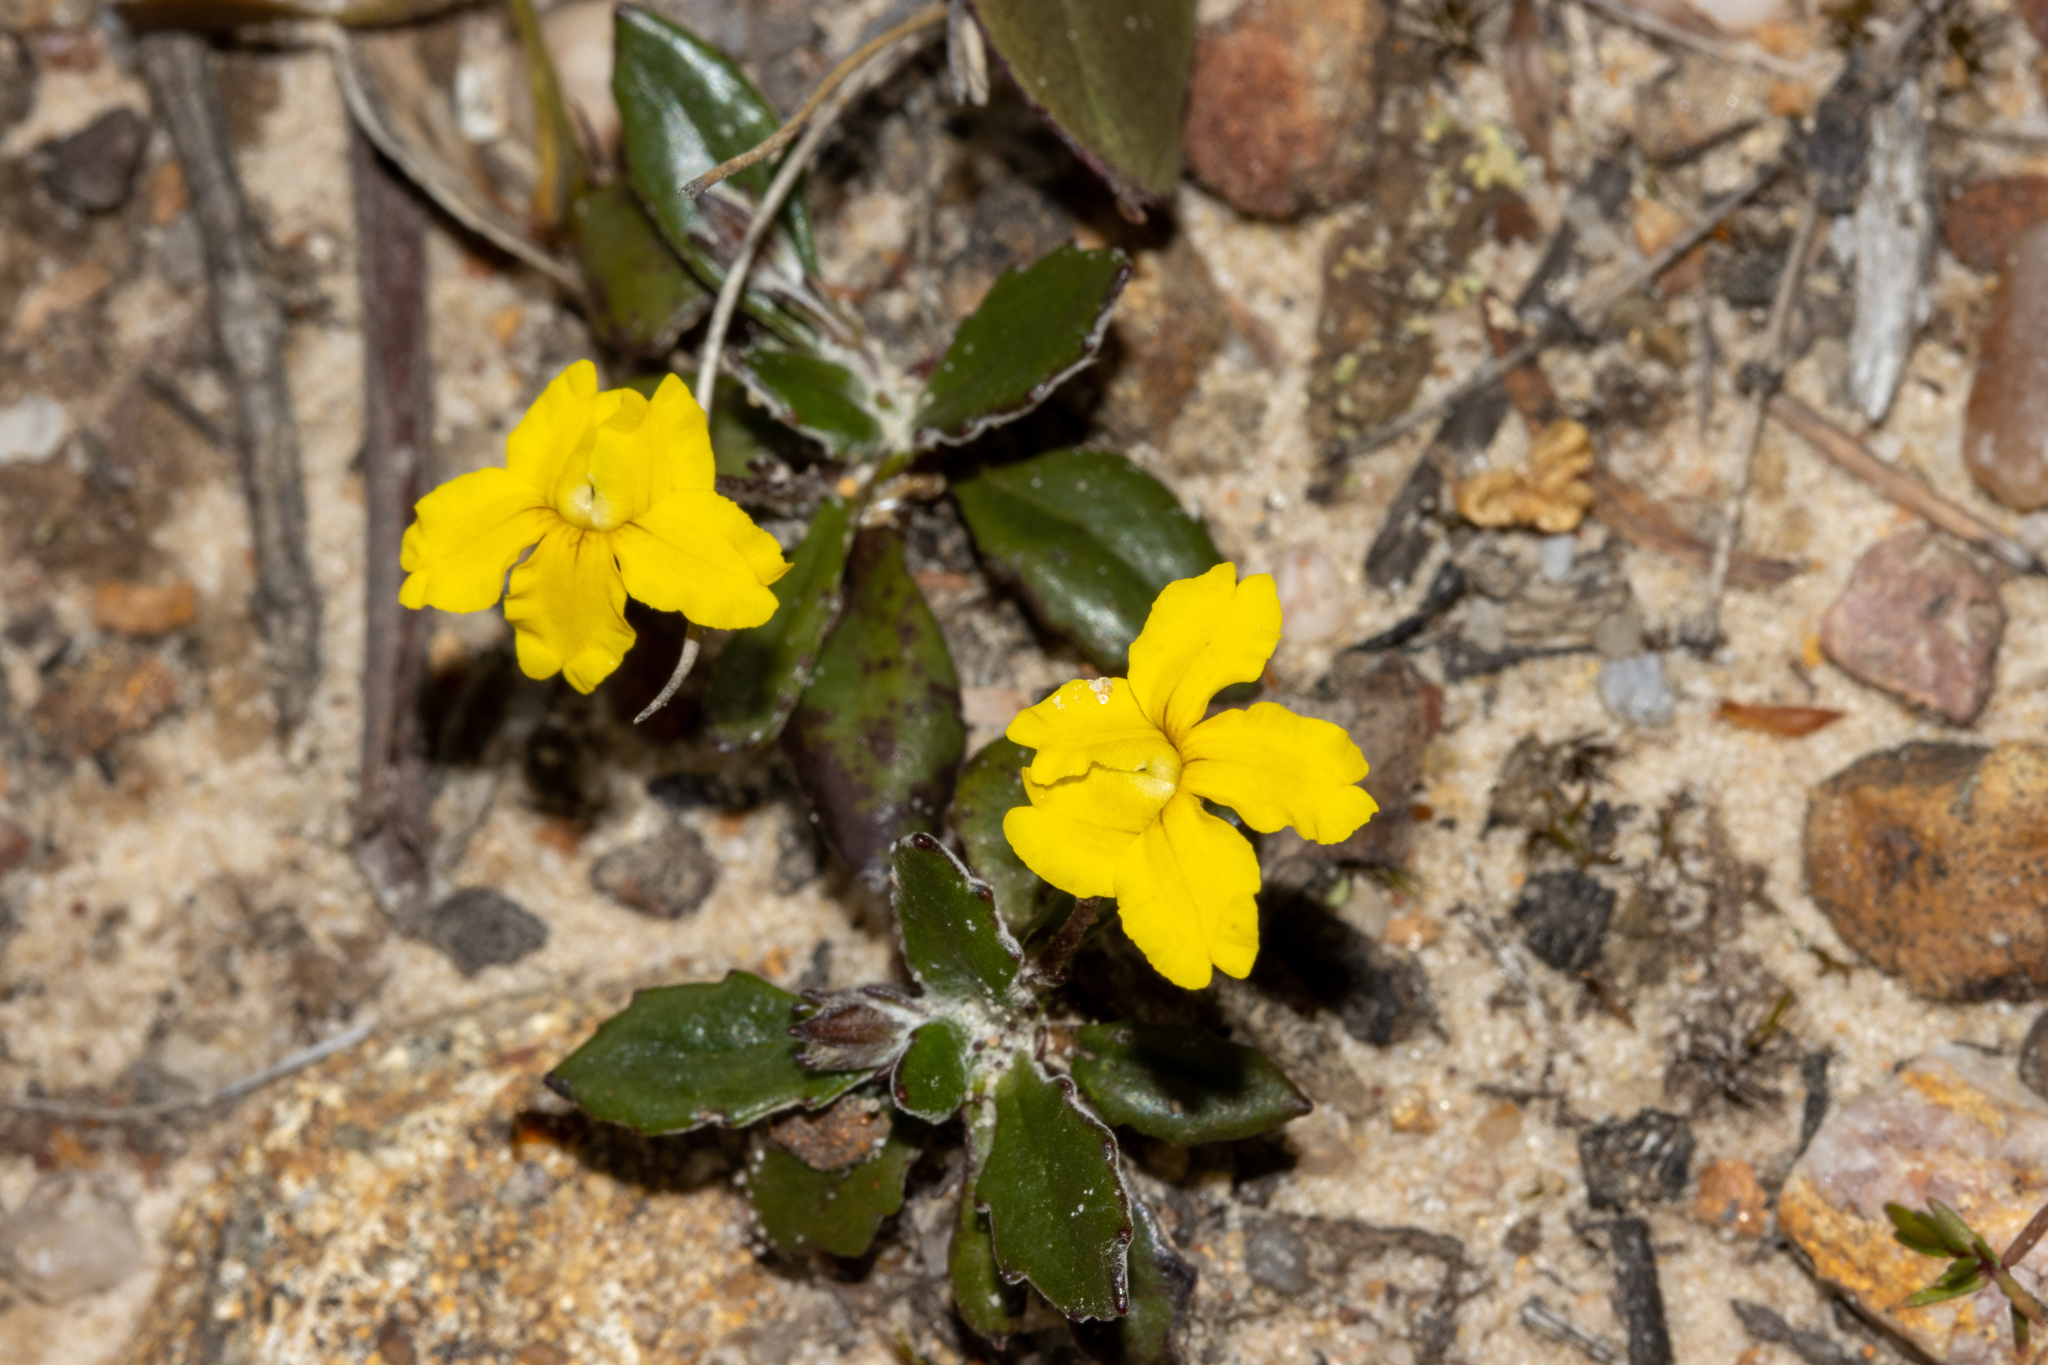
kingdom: Plantae
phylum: Tracheophyta
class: Magnoliopsida
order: Asterales
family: Goodeniaceae
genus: Goodenia
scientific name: Goodenia blackiana
